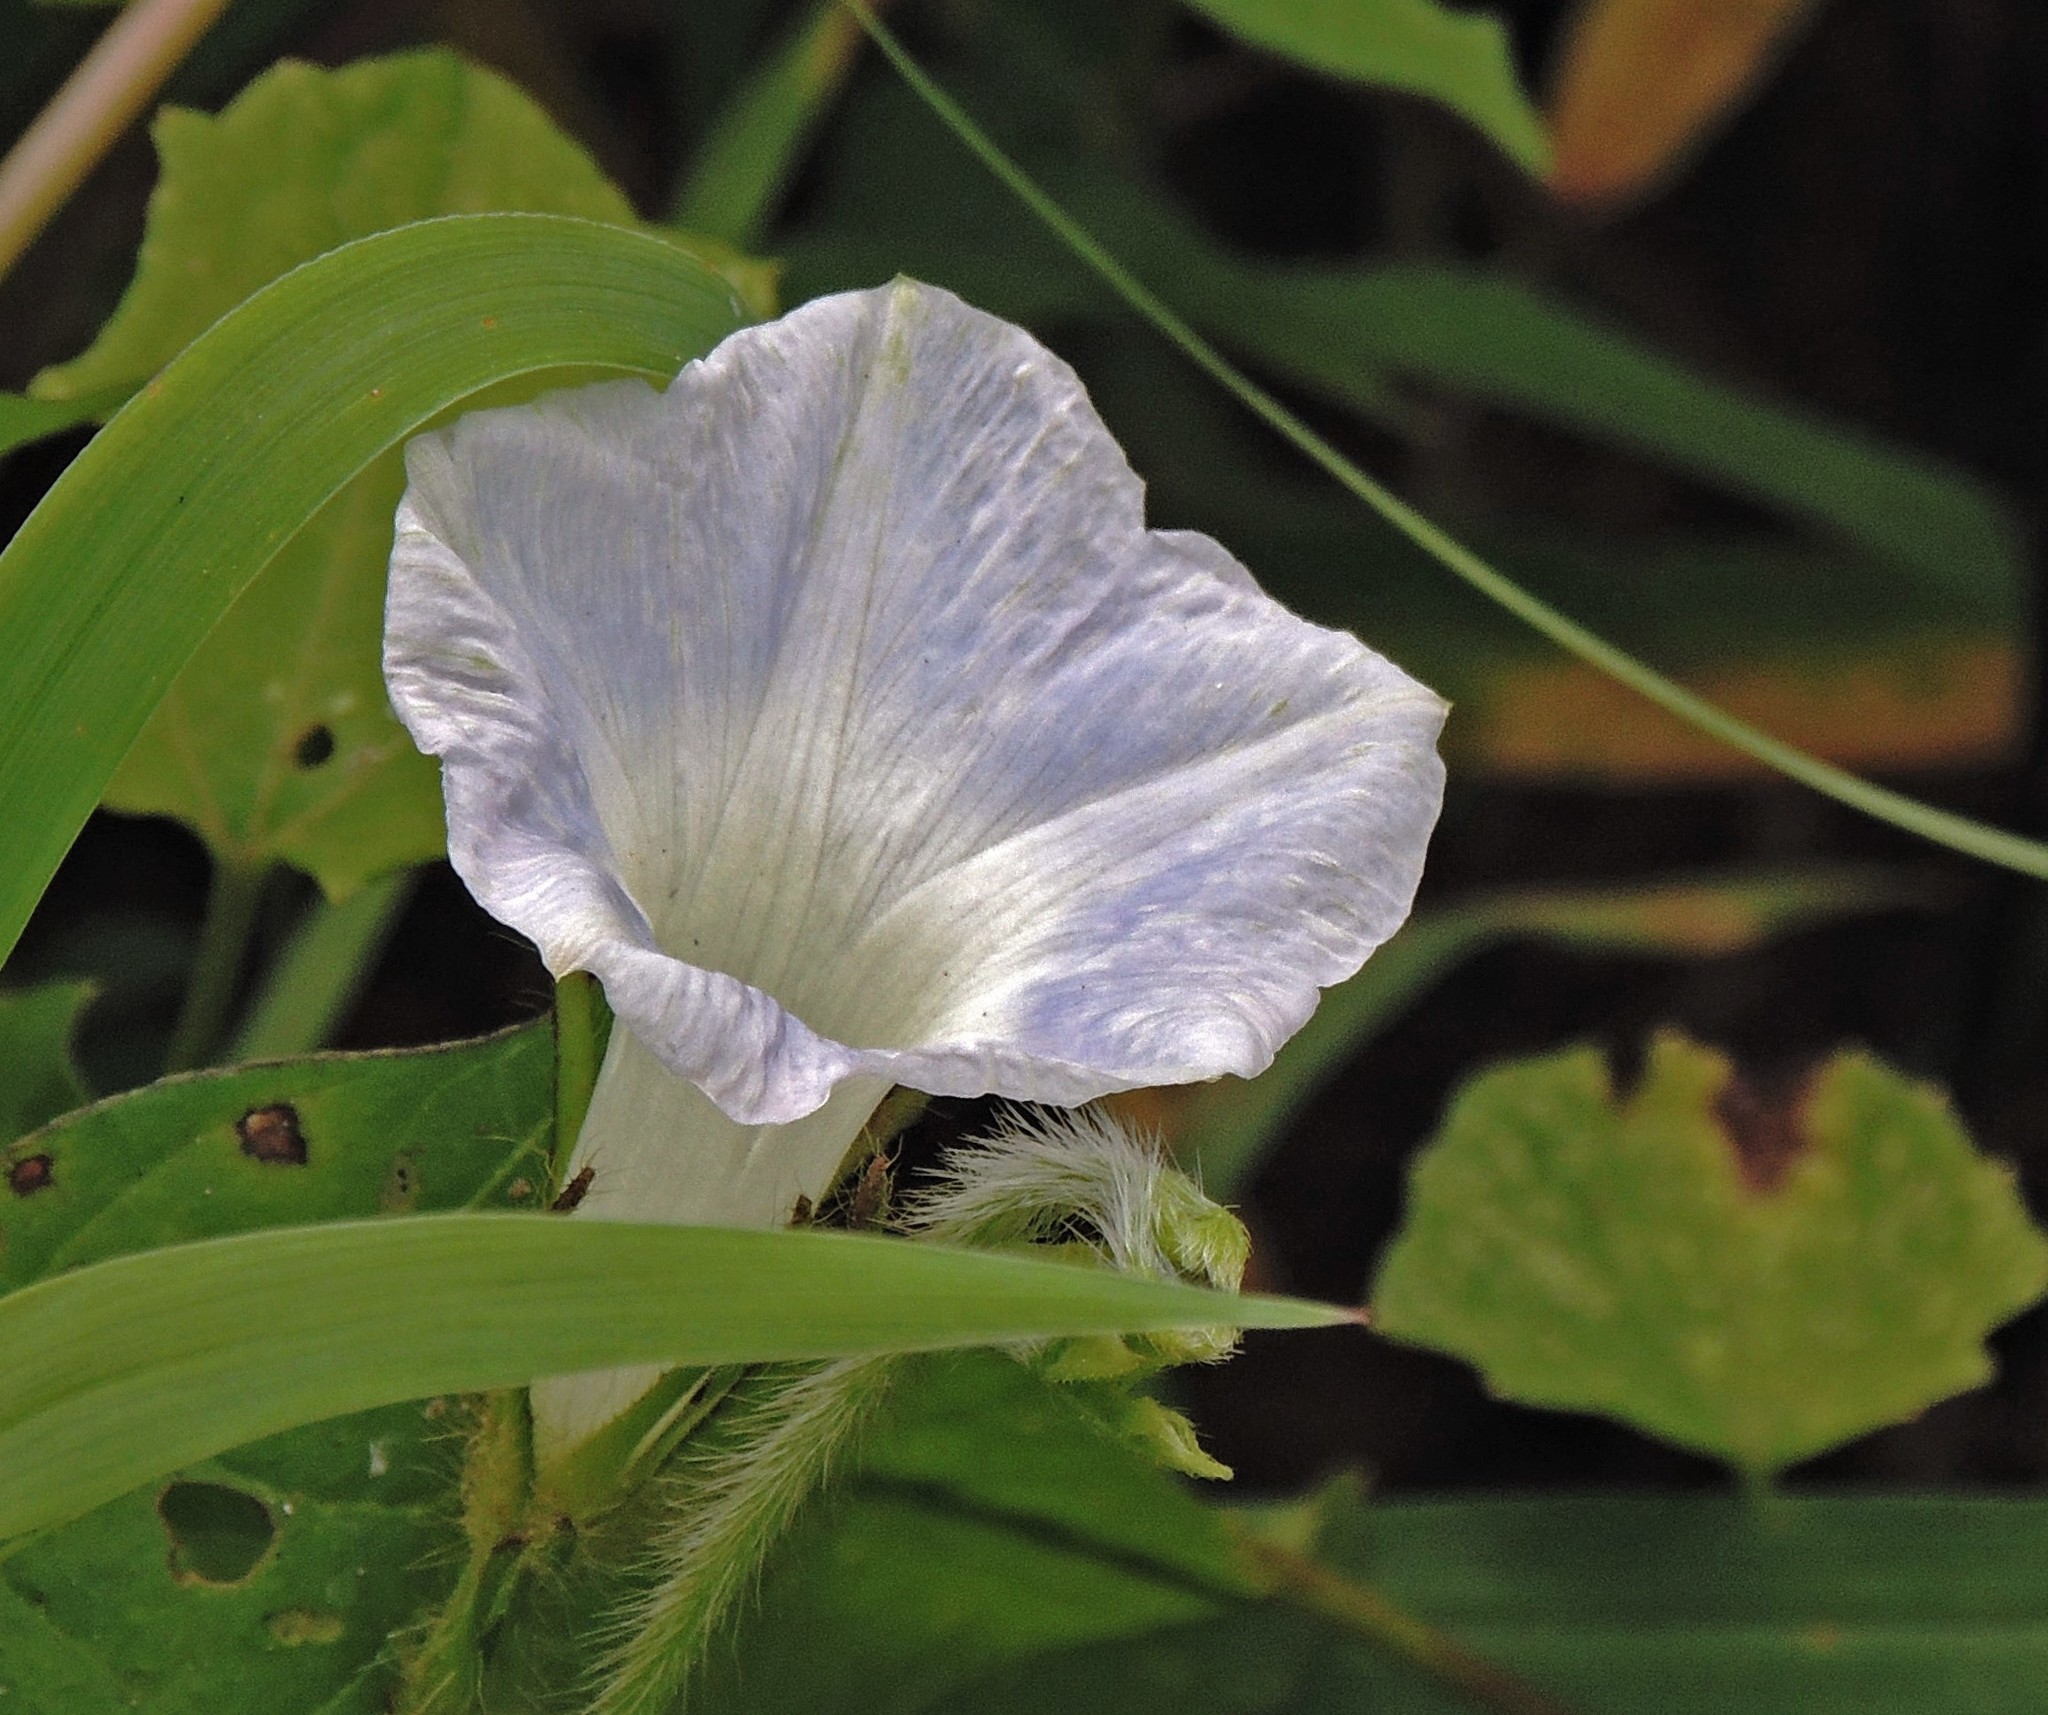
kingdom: Plantae
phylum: Tracheophyta
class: Magnoliopsida
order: Solanales
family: Convolvulaceae
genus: Ipomoea
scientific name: Ipomoea nil
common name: Japanese morning-glory
